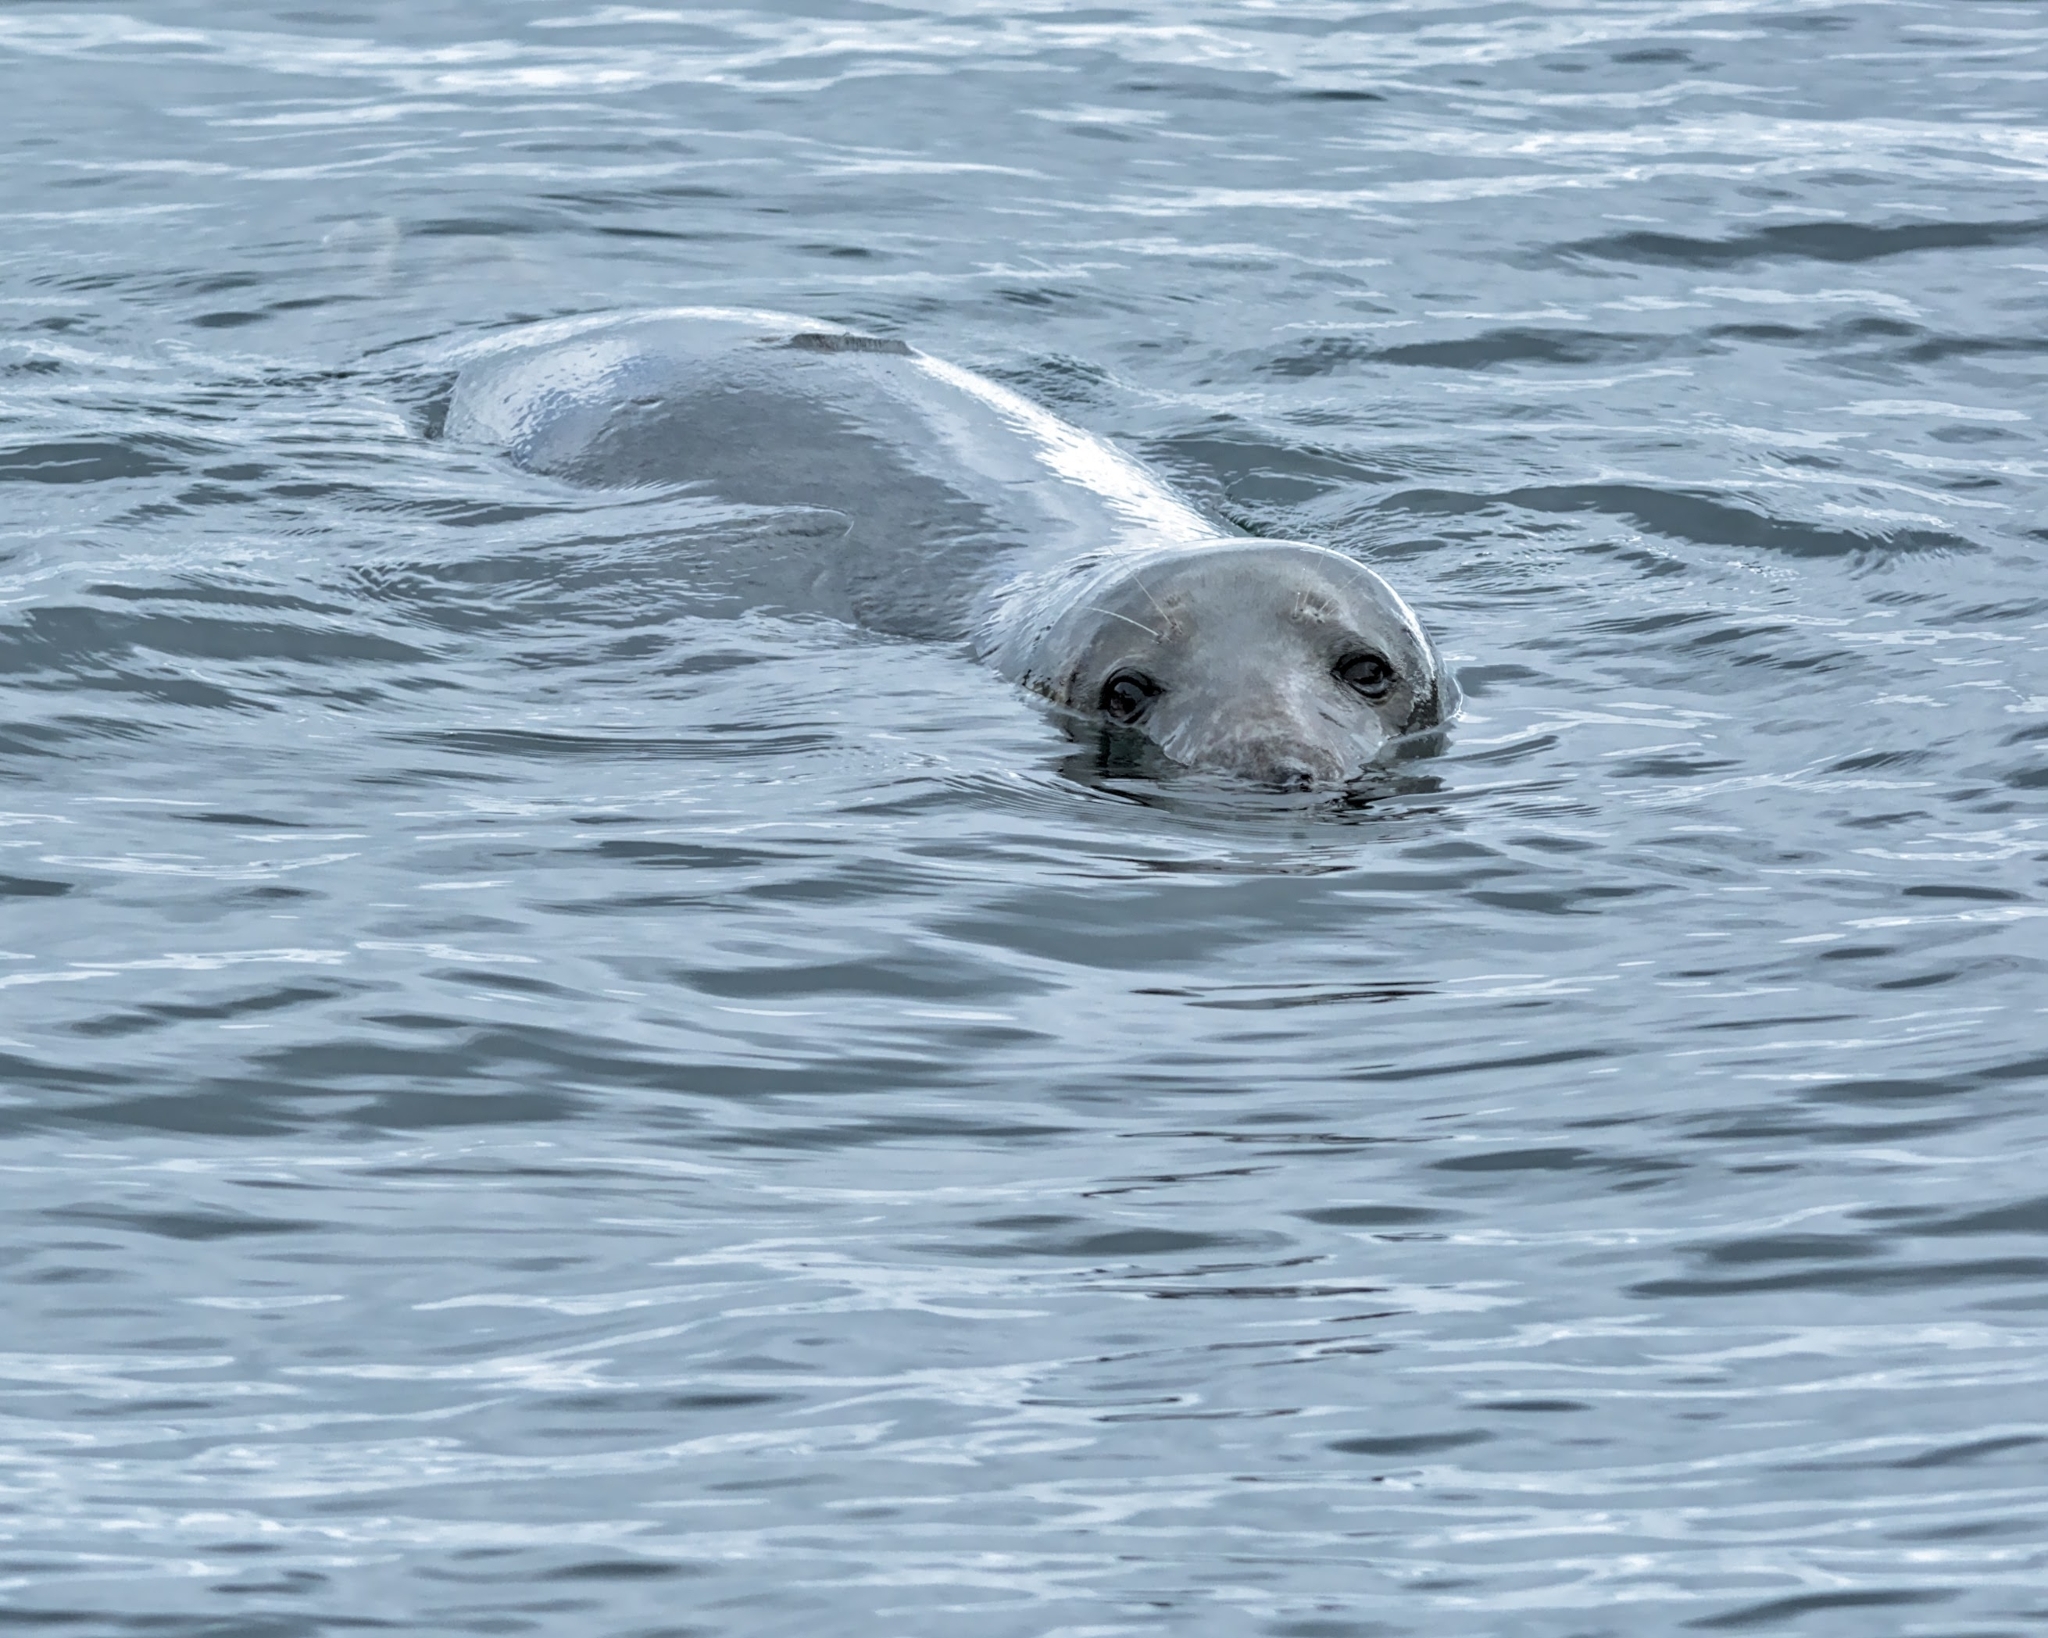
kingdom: Animalia
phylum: Chordata
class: Mammalia
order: Carnivora
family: Phocidae
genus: Halichoerus
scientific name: Halichoerus grypus
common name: Grey seal
